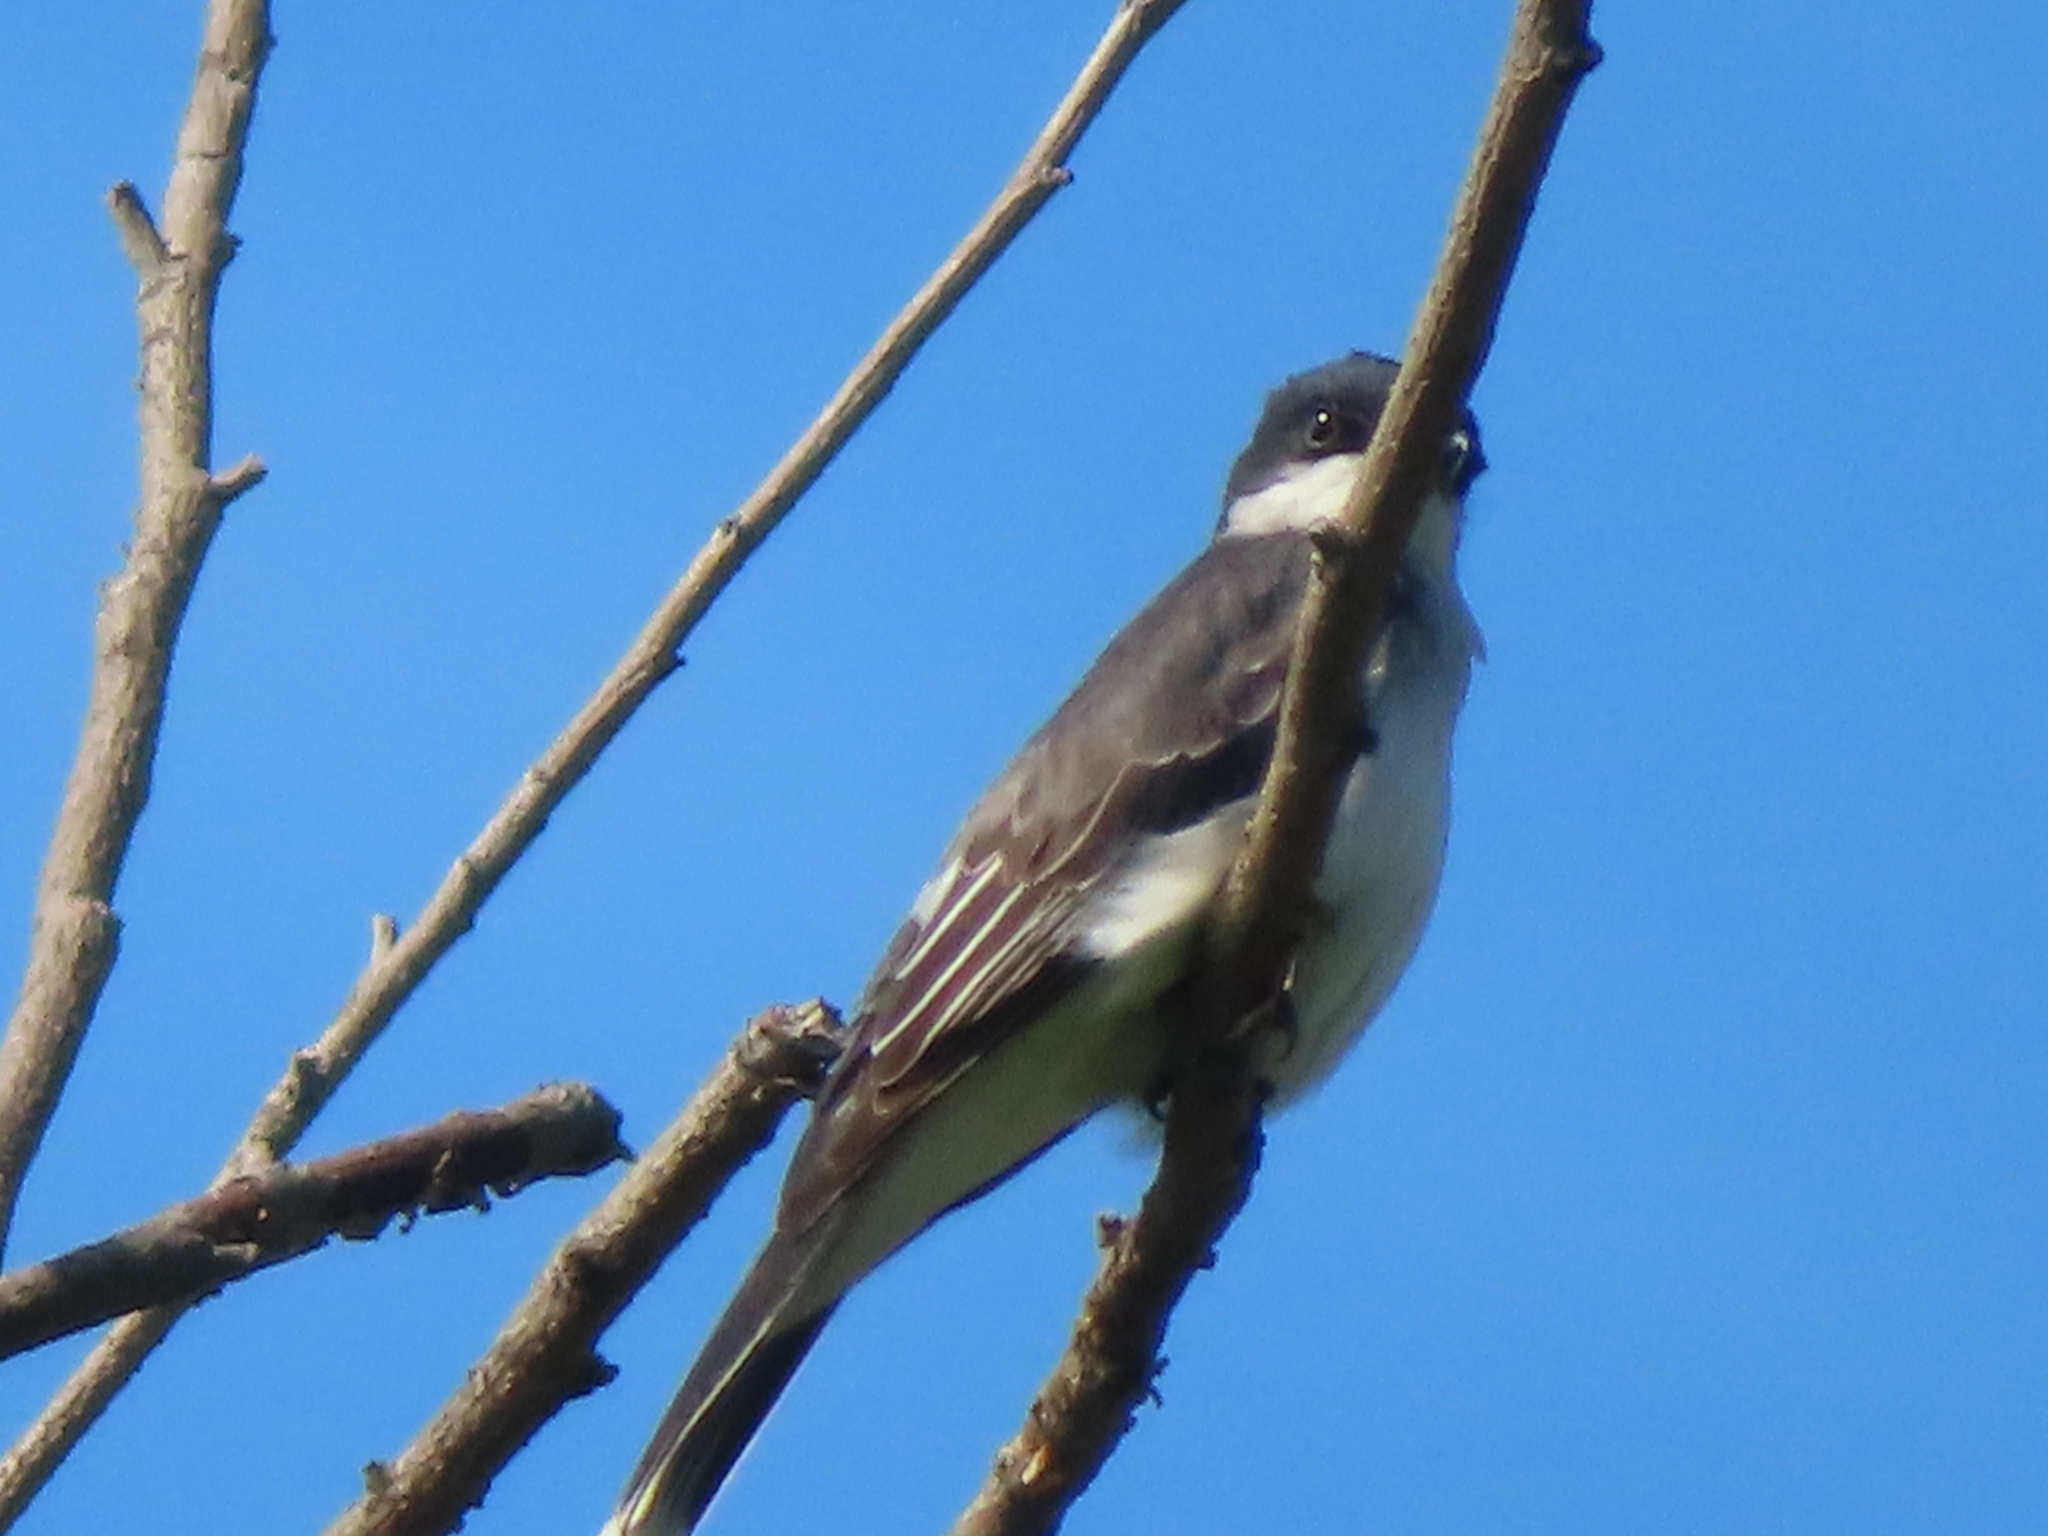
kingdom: Animalia
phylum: Chordata
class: Aves
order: Passeriformes
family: Tyrannidae
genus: Tyrannus
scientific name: Tyrannus tyrannus
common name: Eastern kingbird
